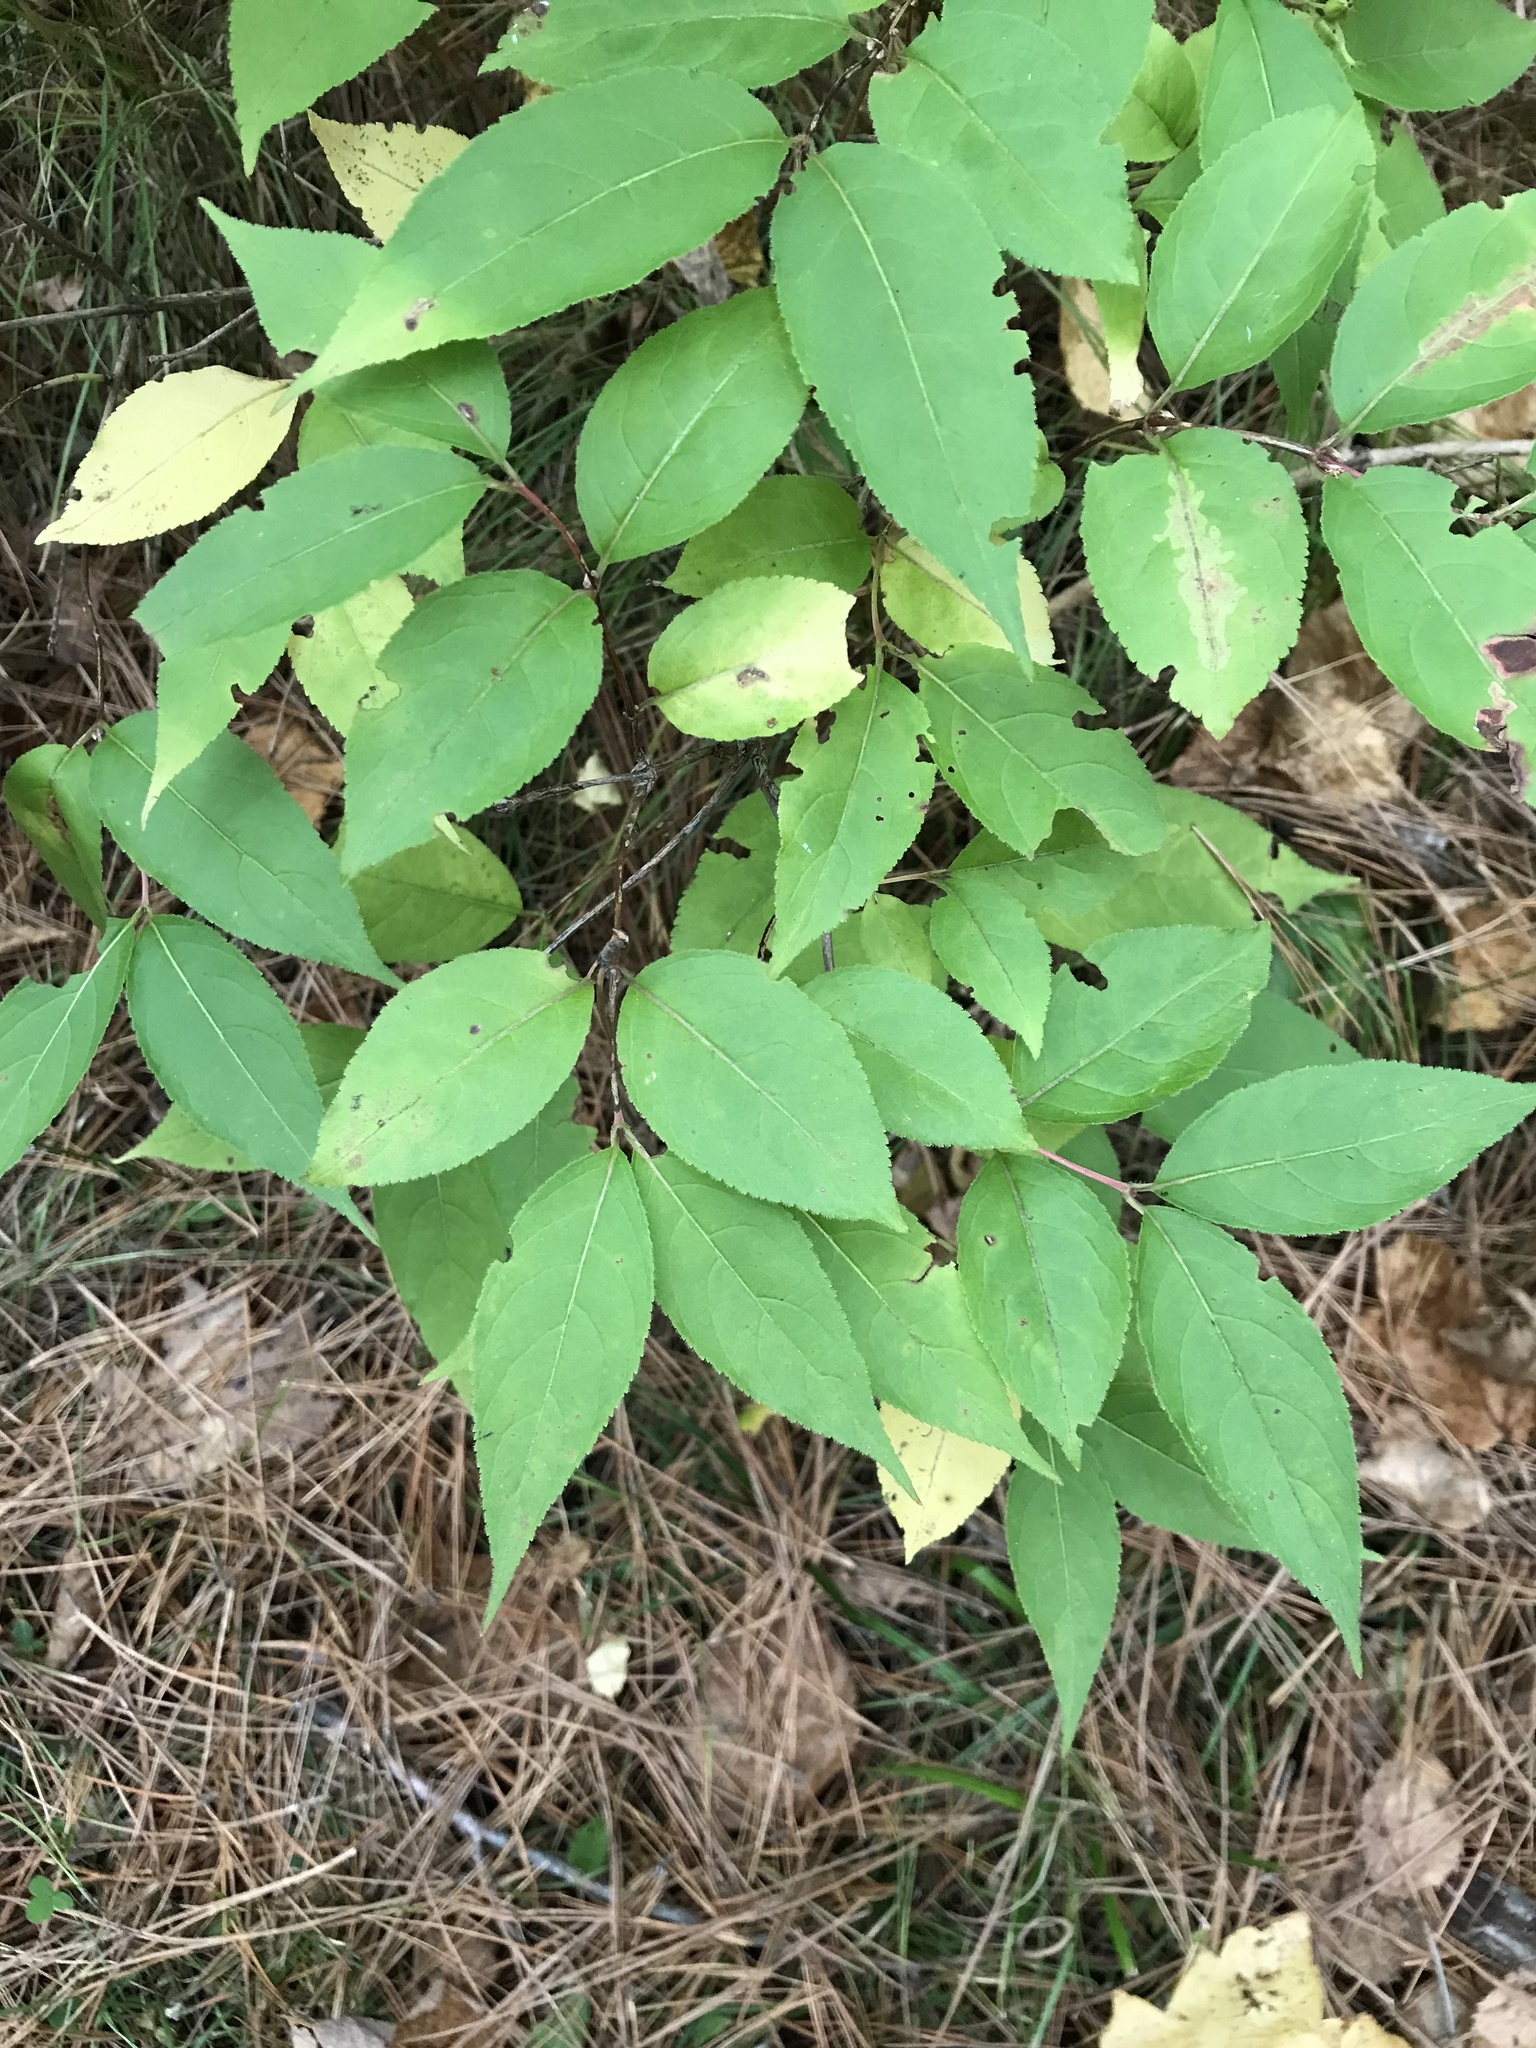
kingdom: Plantae
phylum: Tracheophyta
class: Magnoliopsida
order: Dipsacales
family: Caprifoliaceae
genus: Diervilla
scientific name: Diervilla lonicera
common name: Bush-honeysuckle
